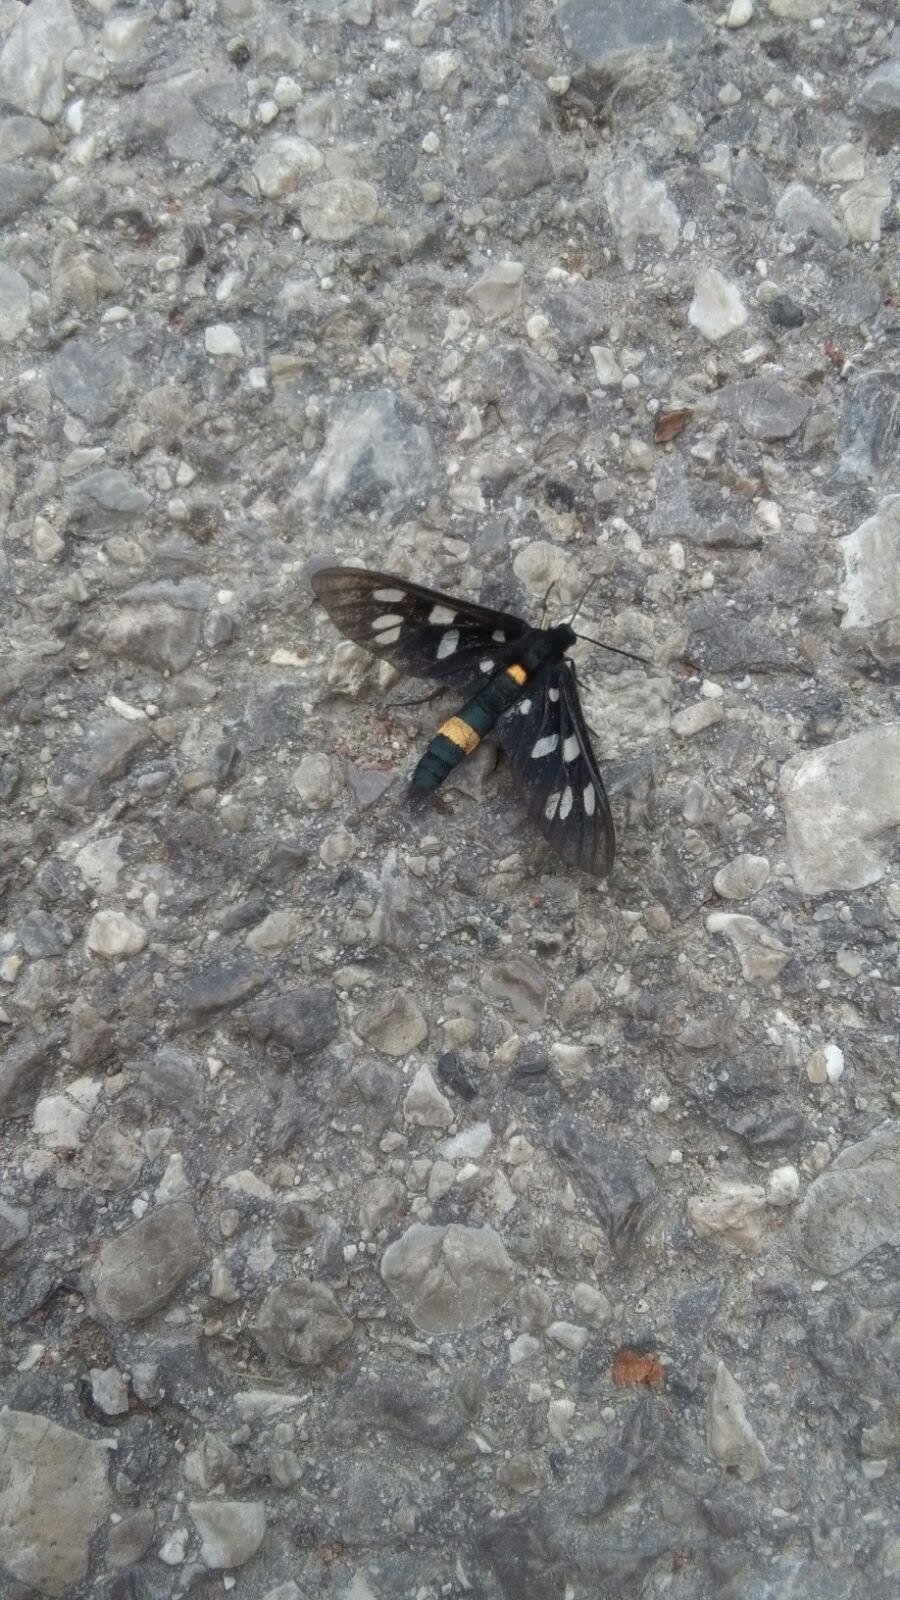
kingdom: Animalia
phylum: Arthropoda
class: Insecta
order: Lepidoptera
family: Erebidae
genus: Amata
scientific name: Amata phegea
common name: Nine-spotted
